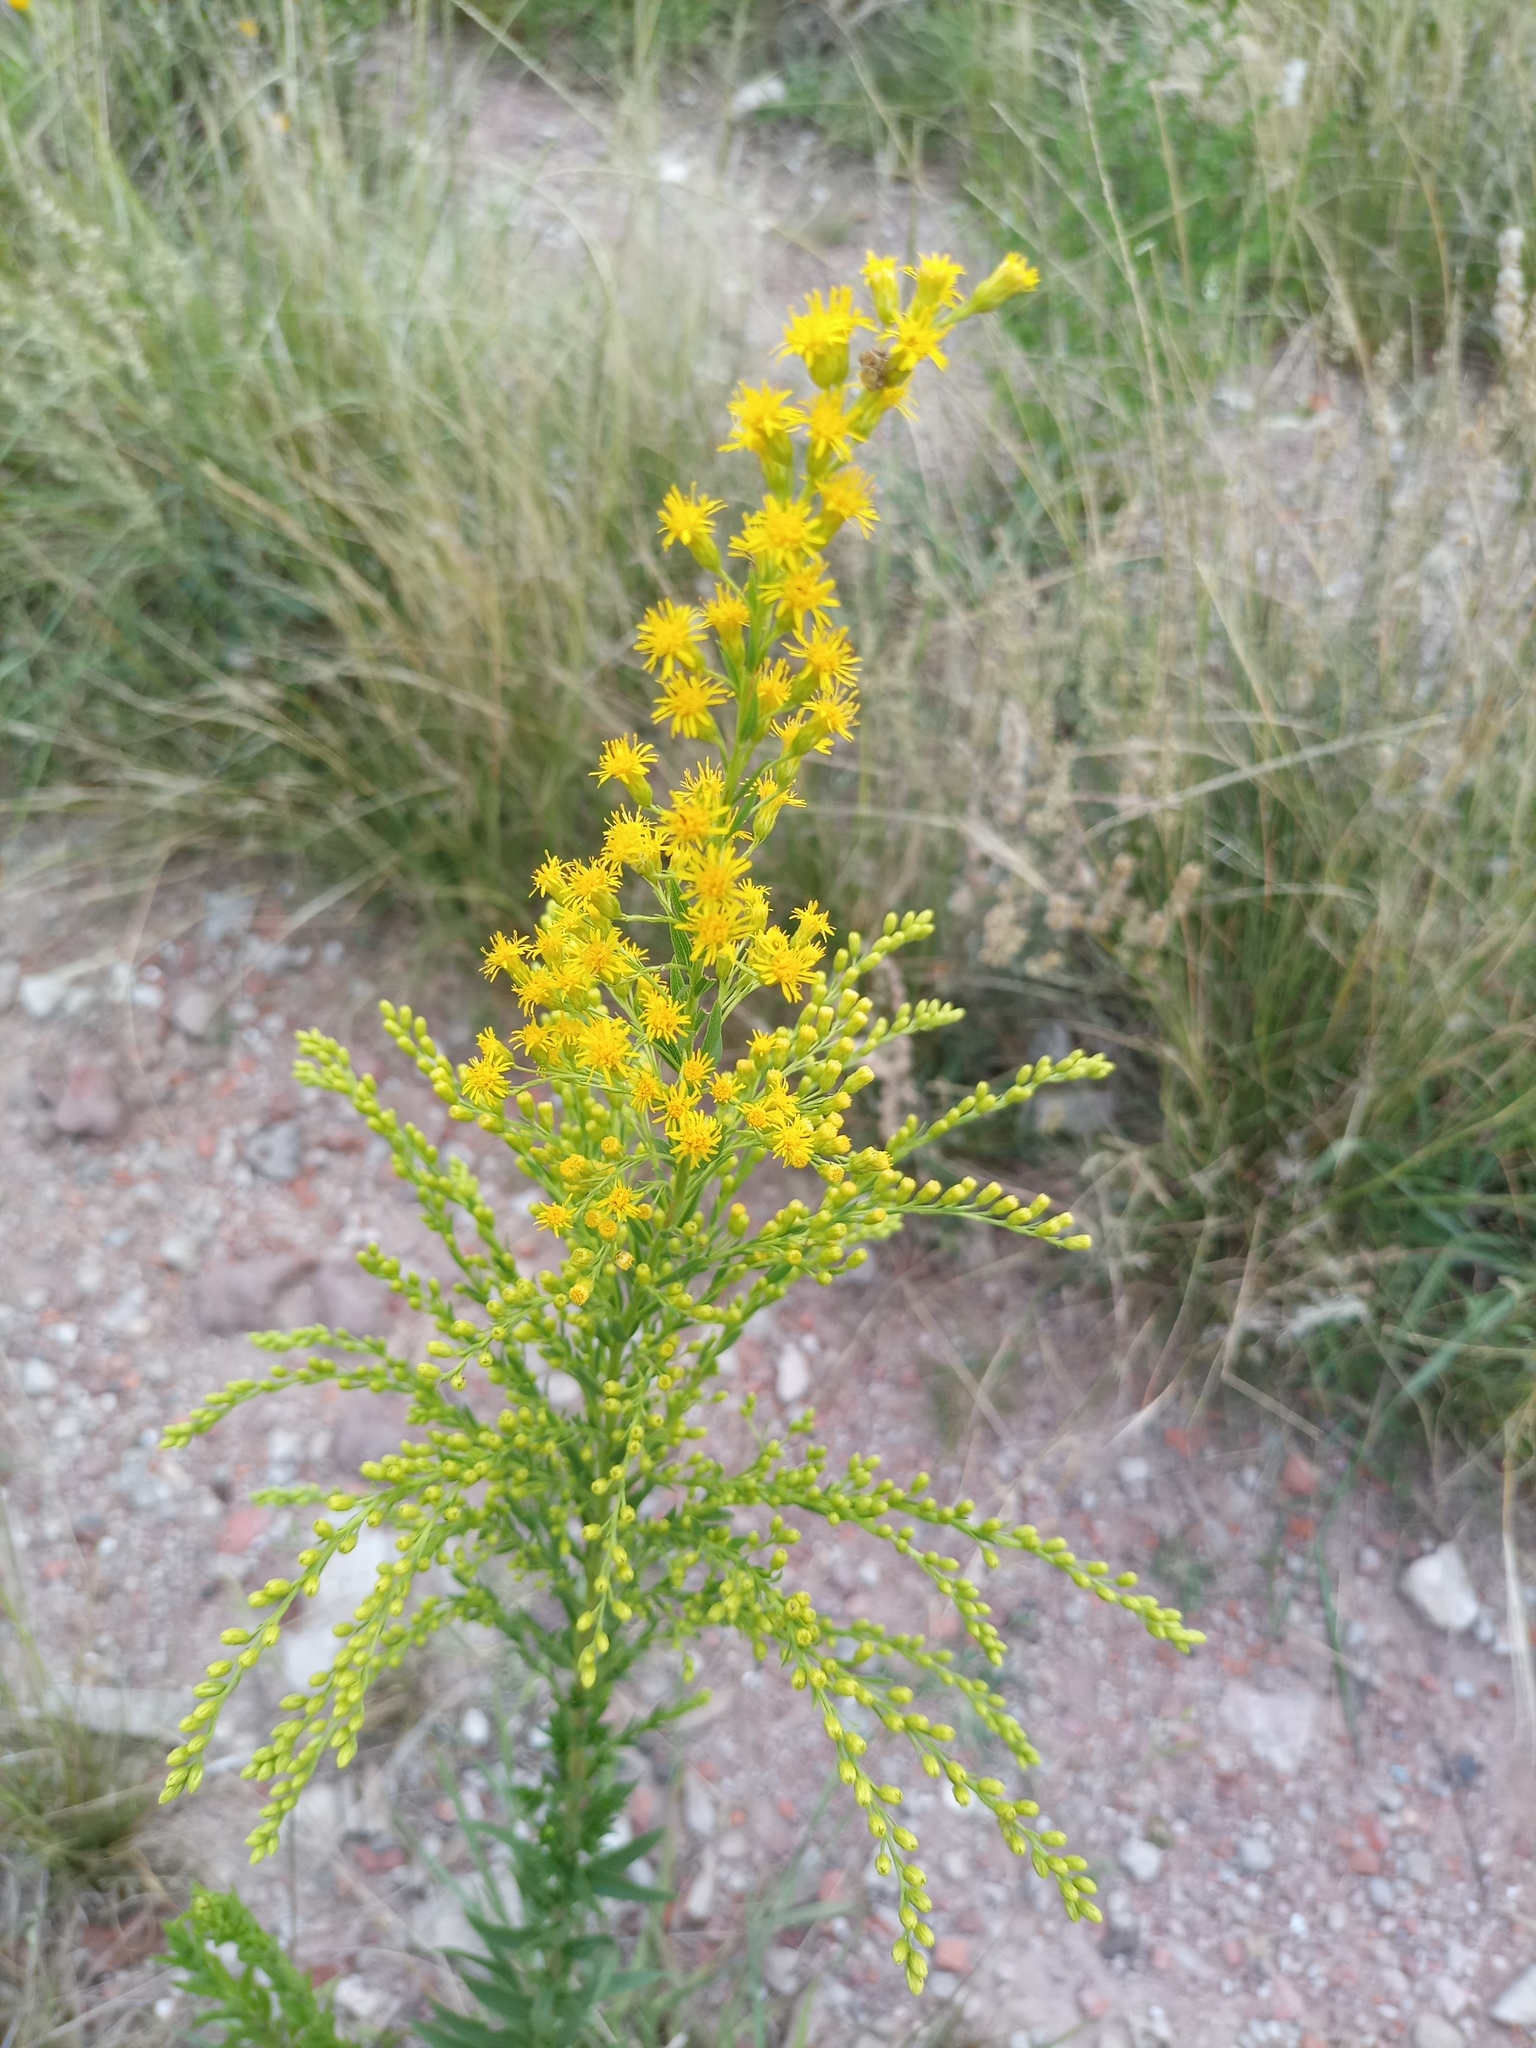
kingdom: Plantae
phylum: Tracheophyta
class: Magnoliopsida
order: Asterales
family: Asteraceae
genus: Solidago
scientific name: Solidago chilensis
